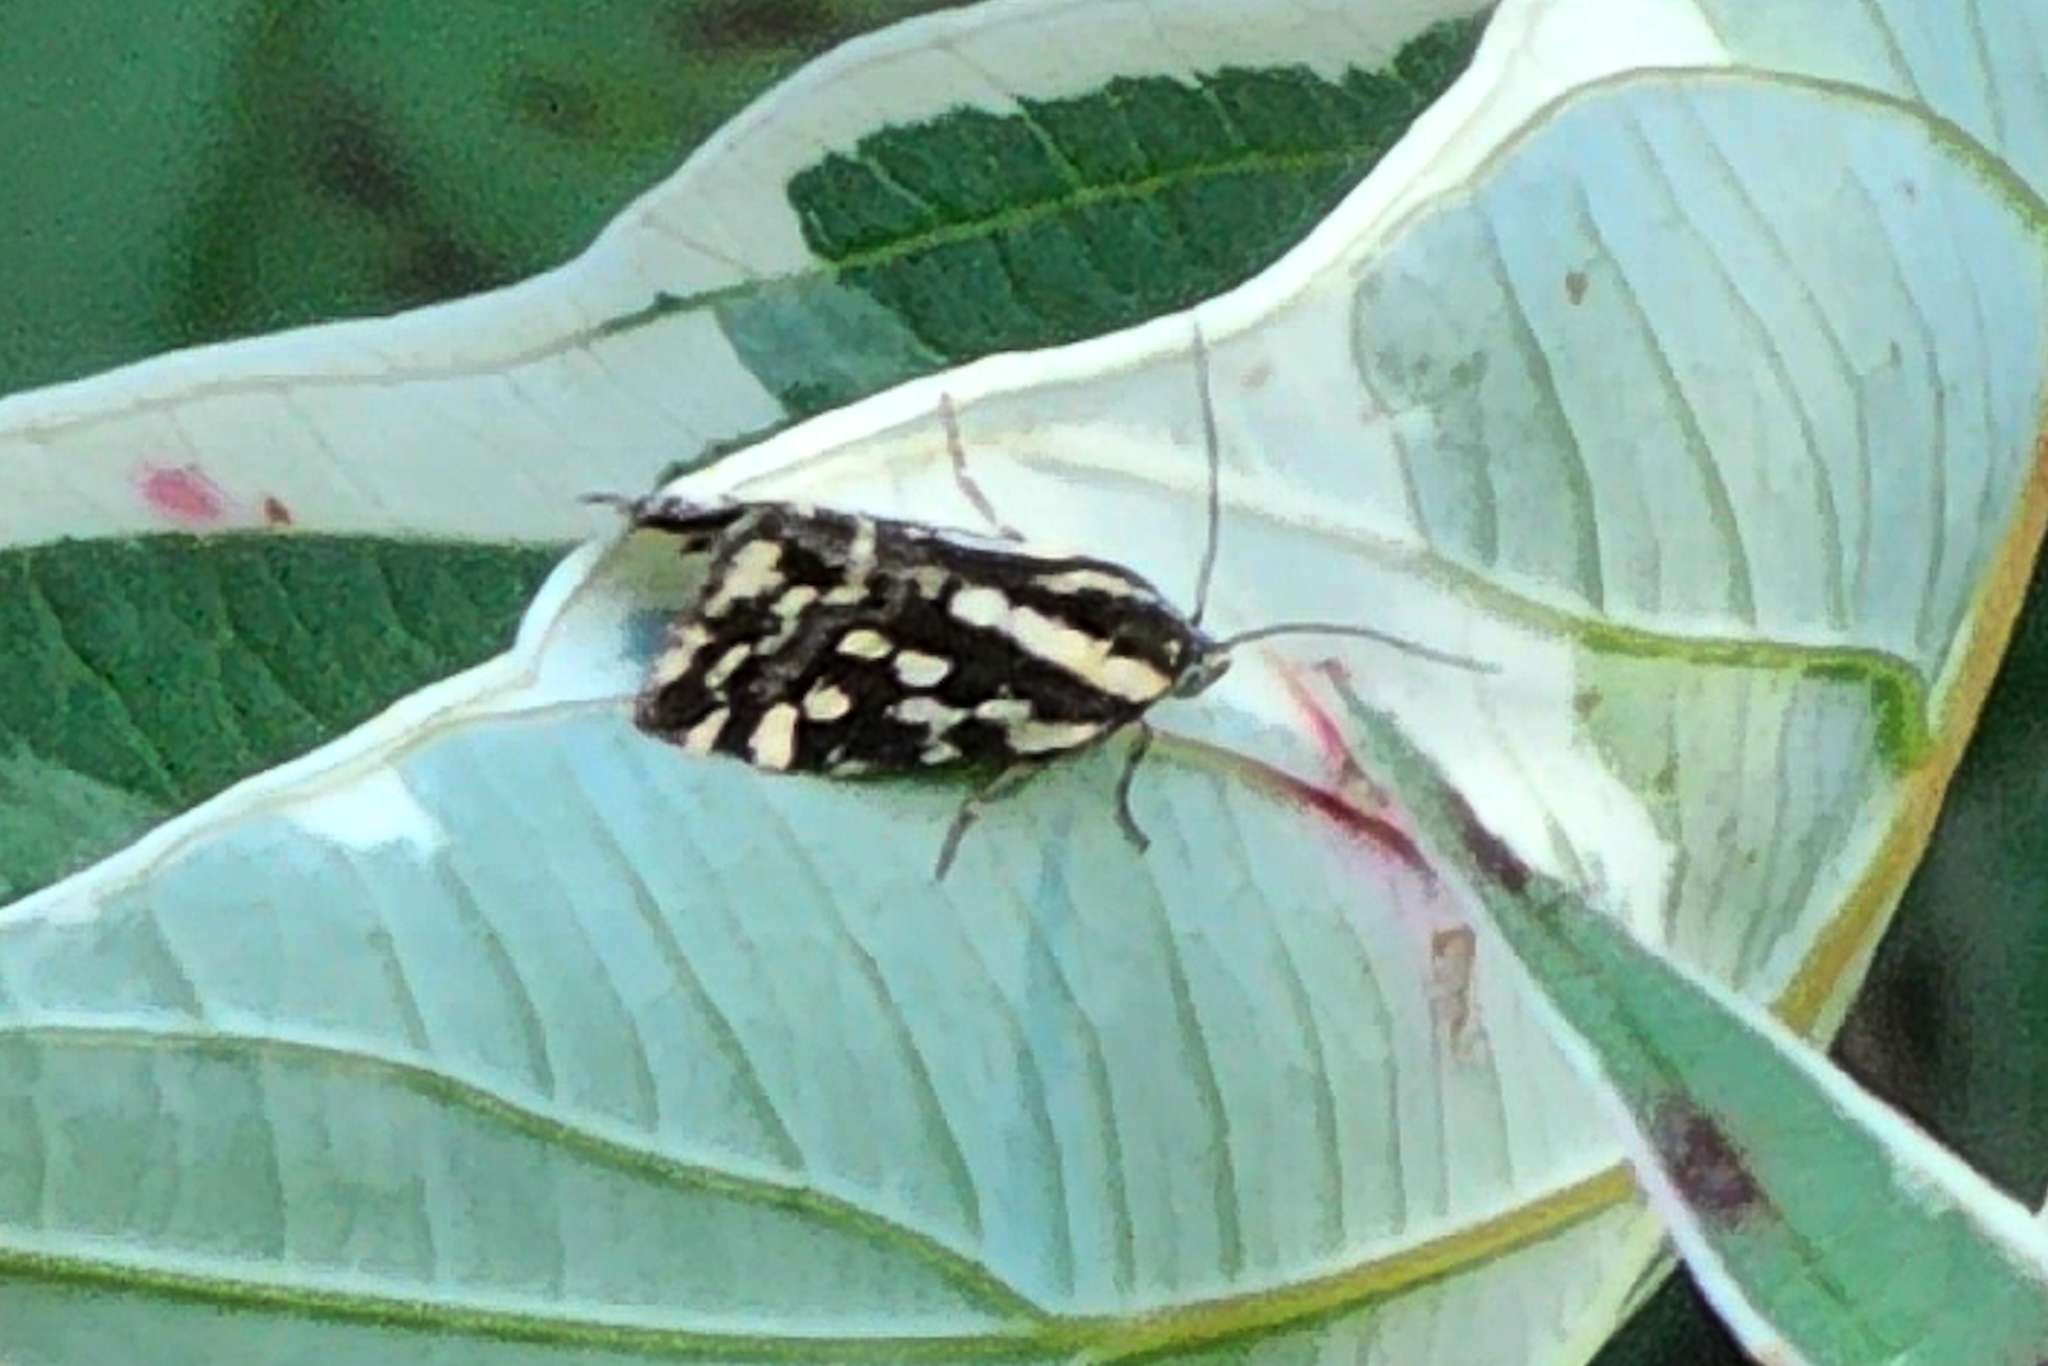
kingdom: Animalia
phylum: Arthropoda
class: Insecta
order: Lepidoptera
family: Noctuidae
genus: Acontia
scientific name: Acontia trabealis
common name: Spotted sulphur
